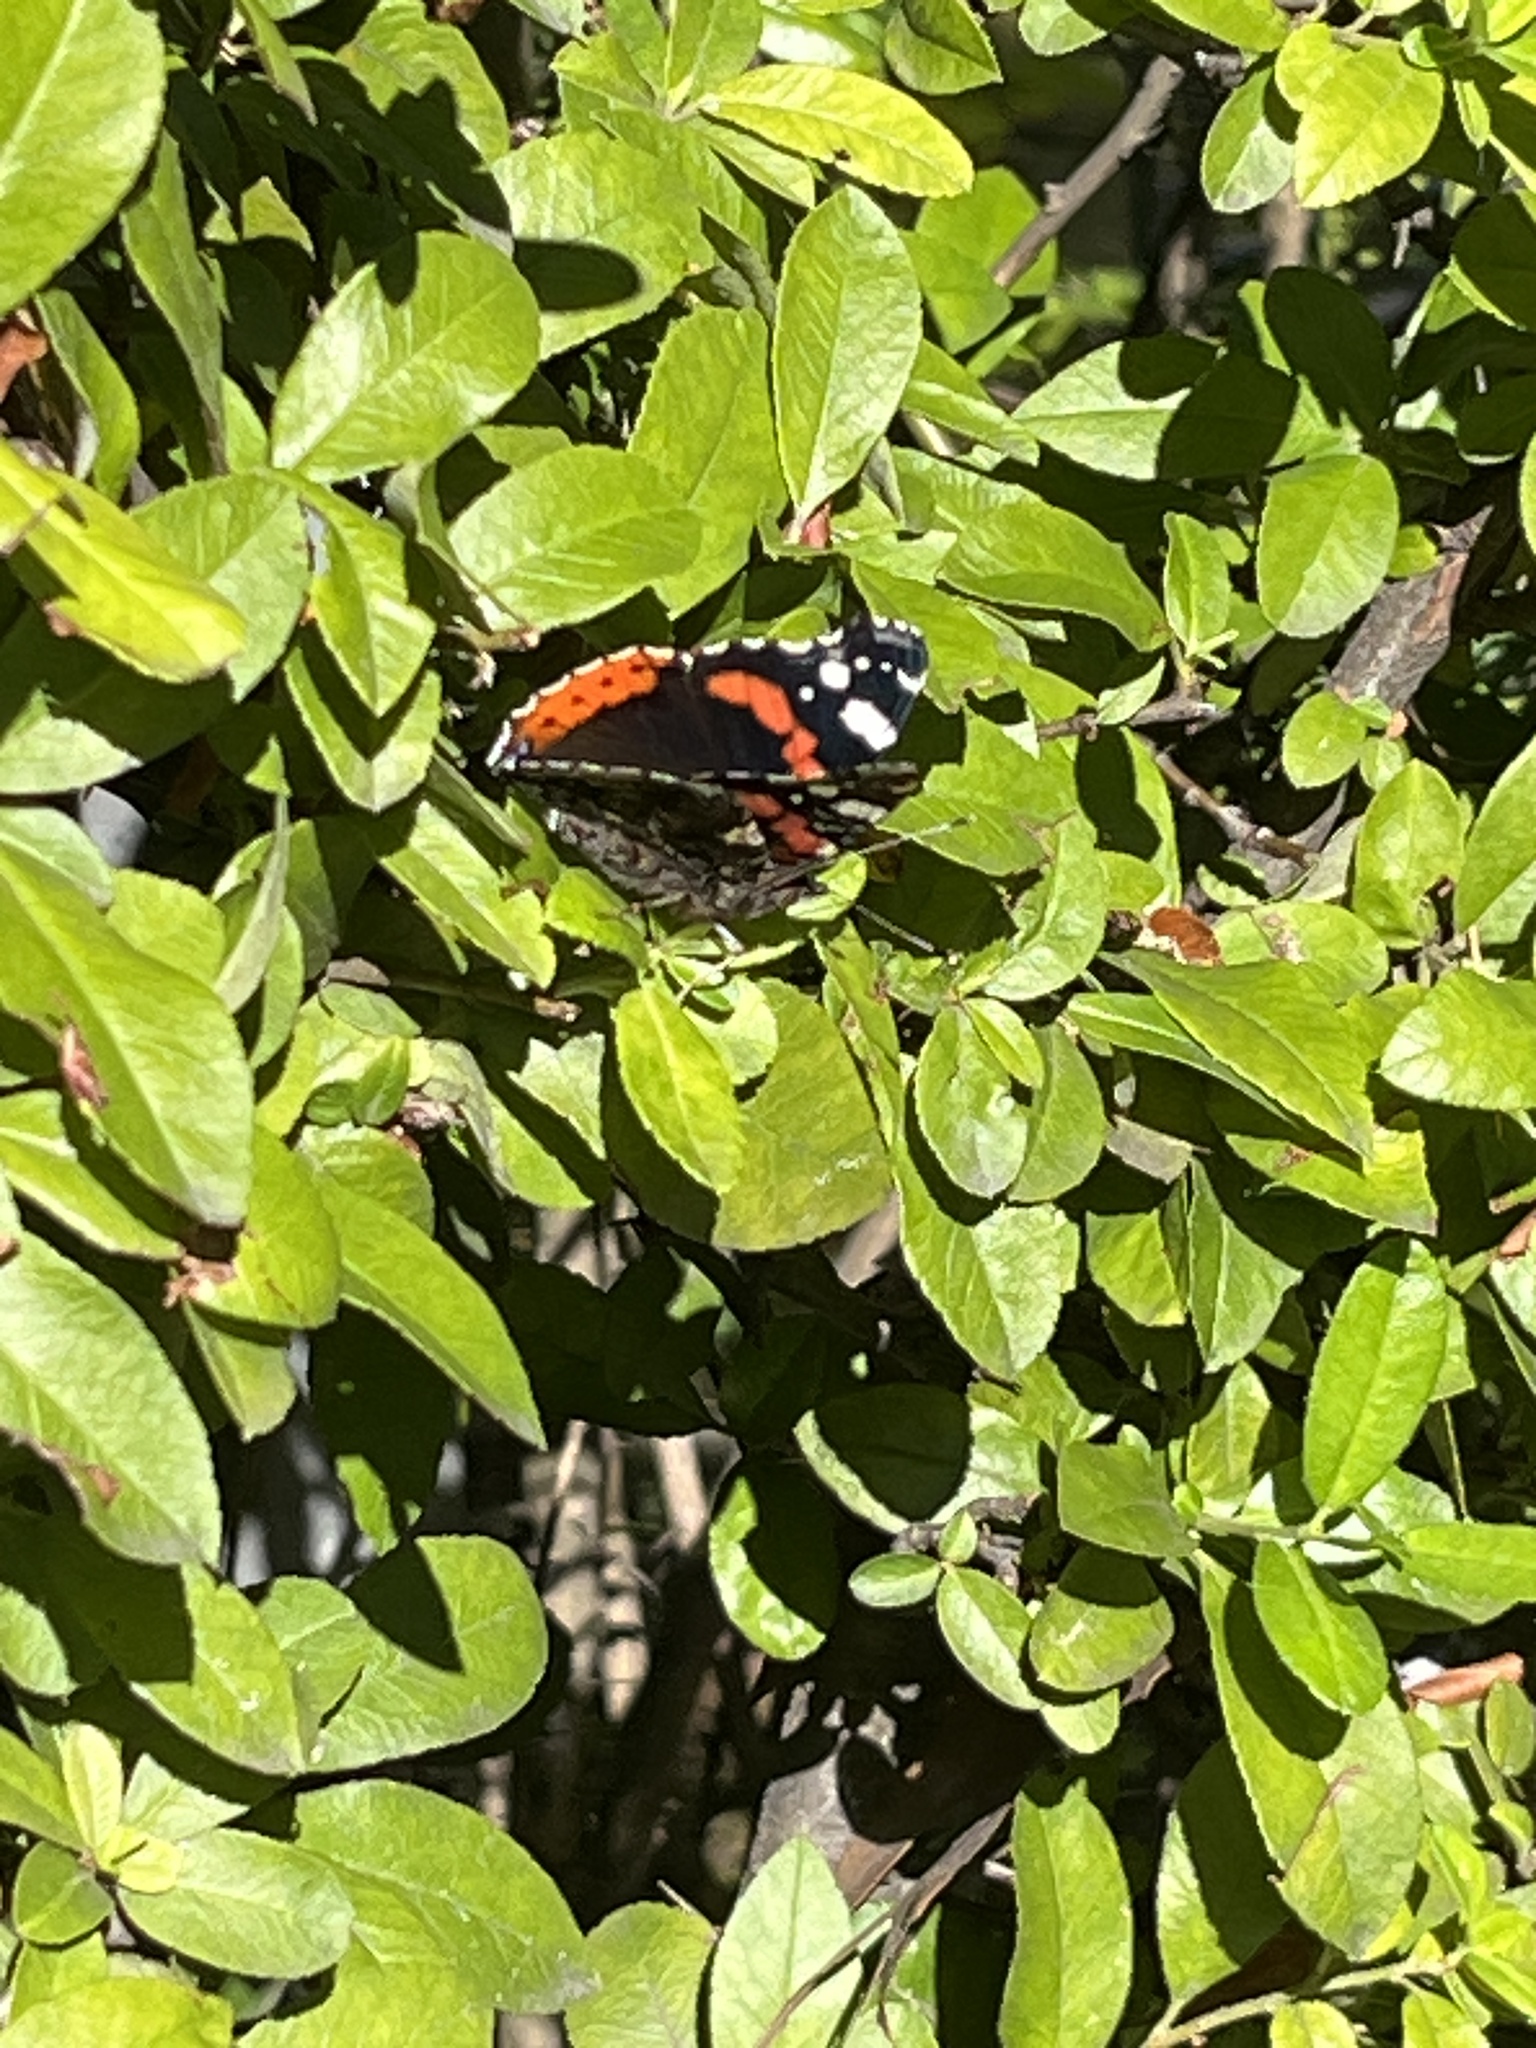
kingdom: Animalia
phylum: Arthropoda
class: Insecta
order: Lepidoptera
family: Nymphalidae
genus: Vanessa
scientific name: Vanessa atalanta
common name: Red admiral
